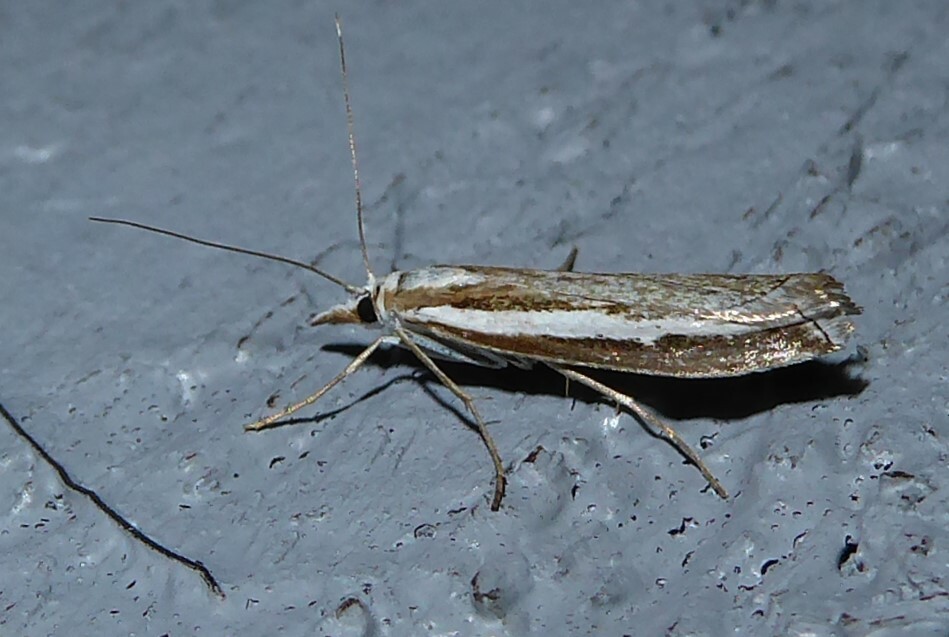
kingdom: Animalia
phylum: Arthropoda
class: Insecta
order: Lepidoptera
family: Crambidae
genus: Orocrambus
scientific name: Orocrambus vittellus
